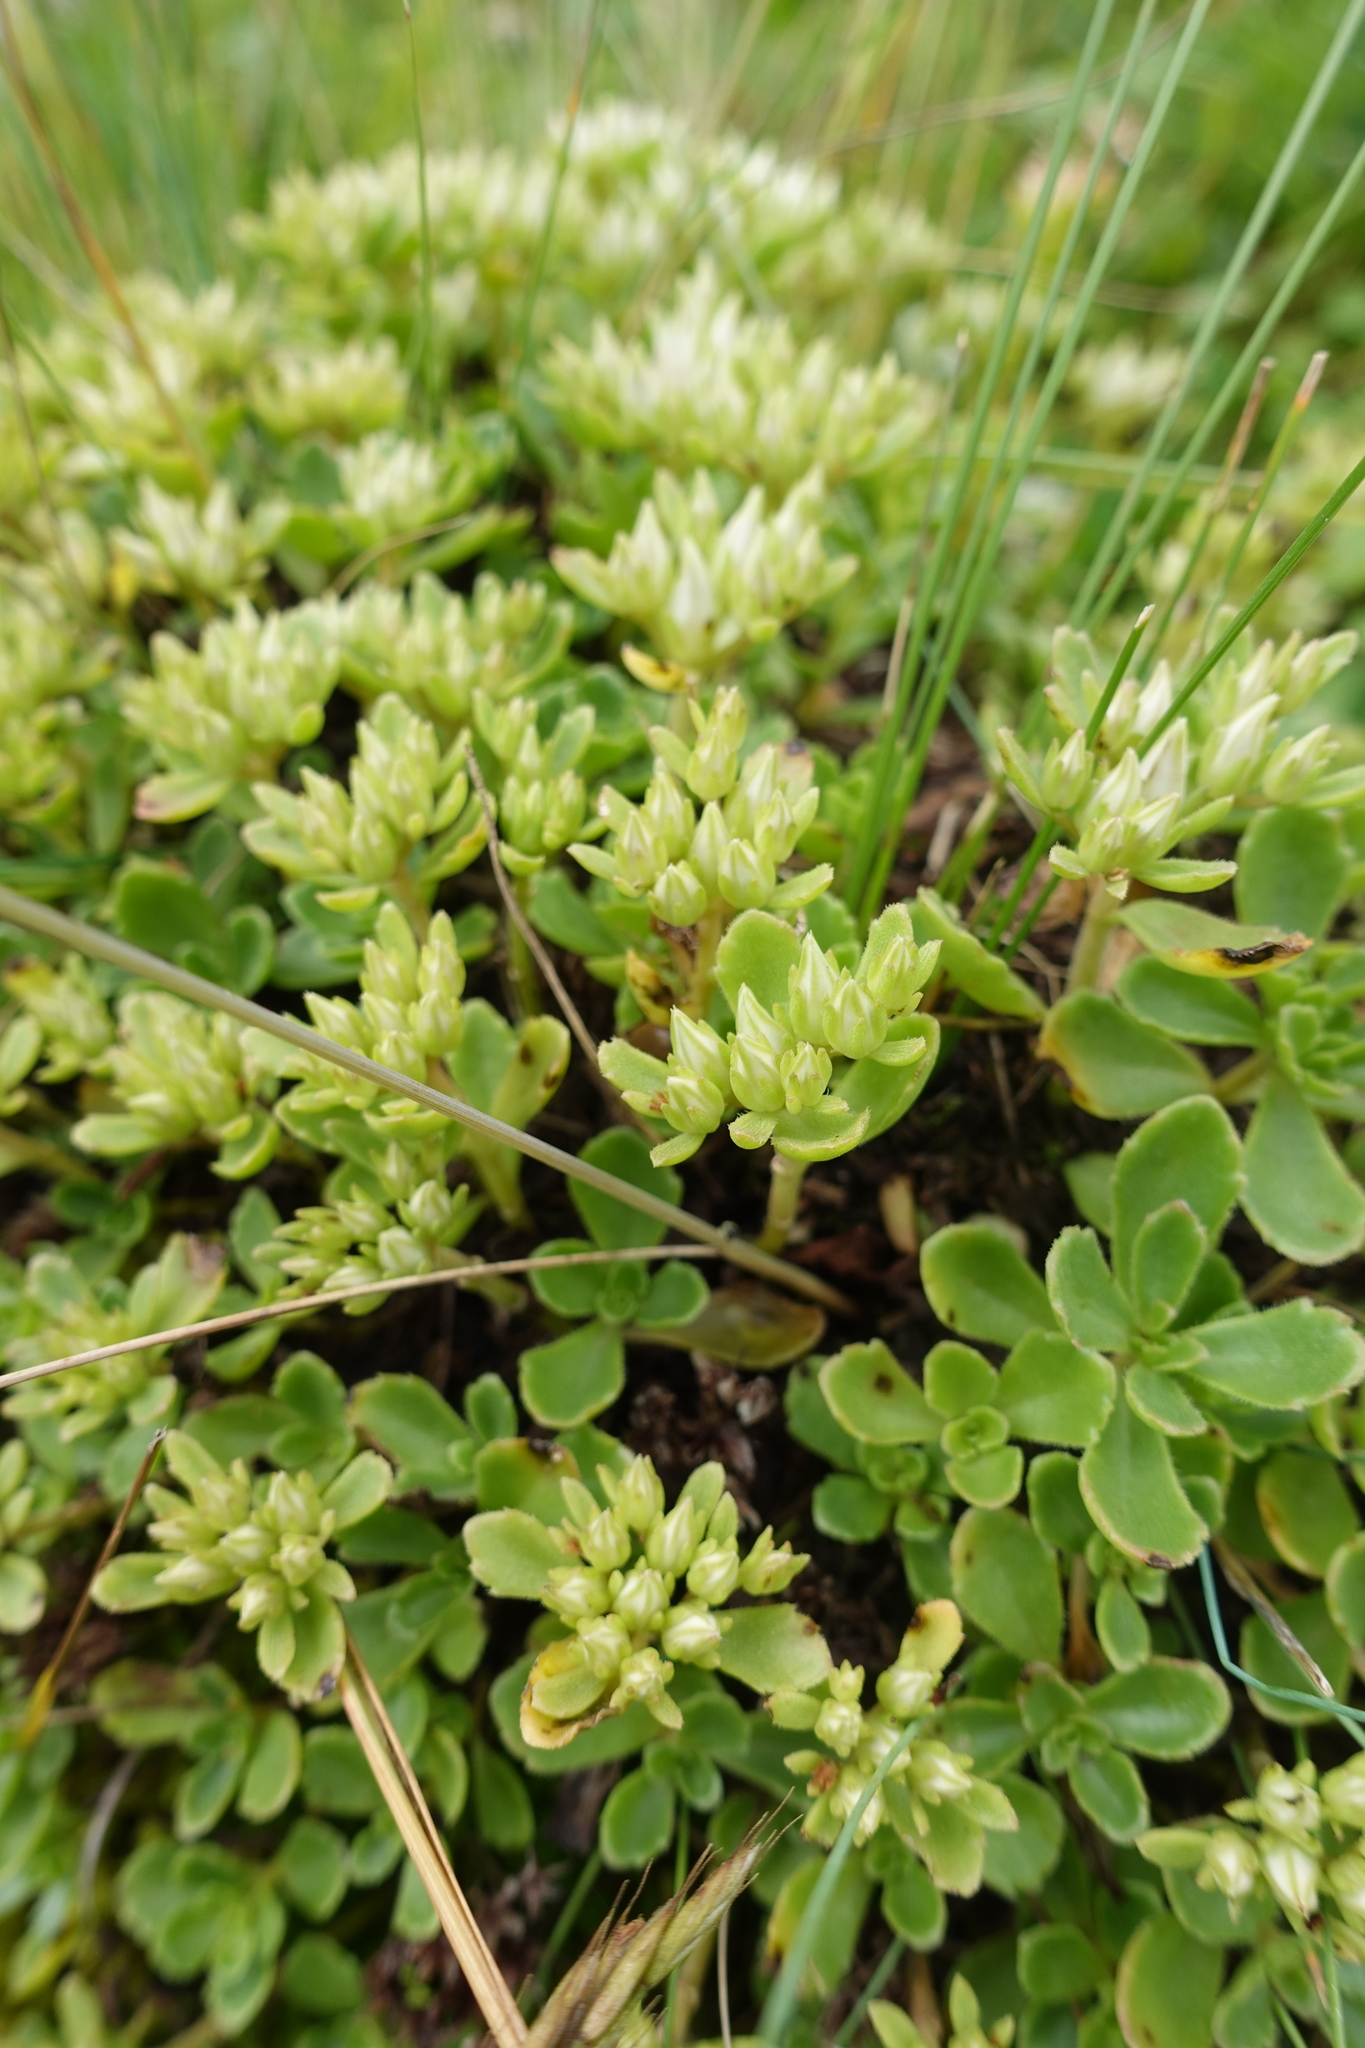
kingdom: Plantae
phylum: Tracheophyta
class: Magnoliopsida
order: Saxifragales
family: Crassulaceae
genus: Phedimus
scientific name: Phedimus spurius
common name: Caucasian stonecrop
